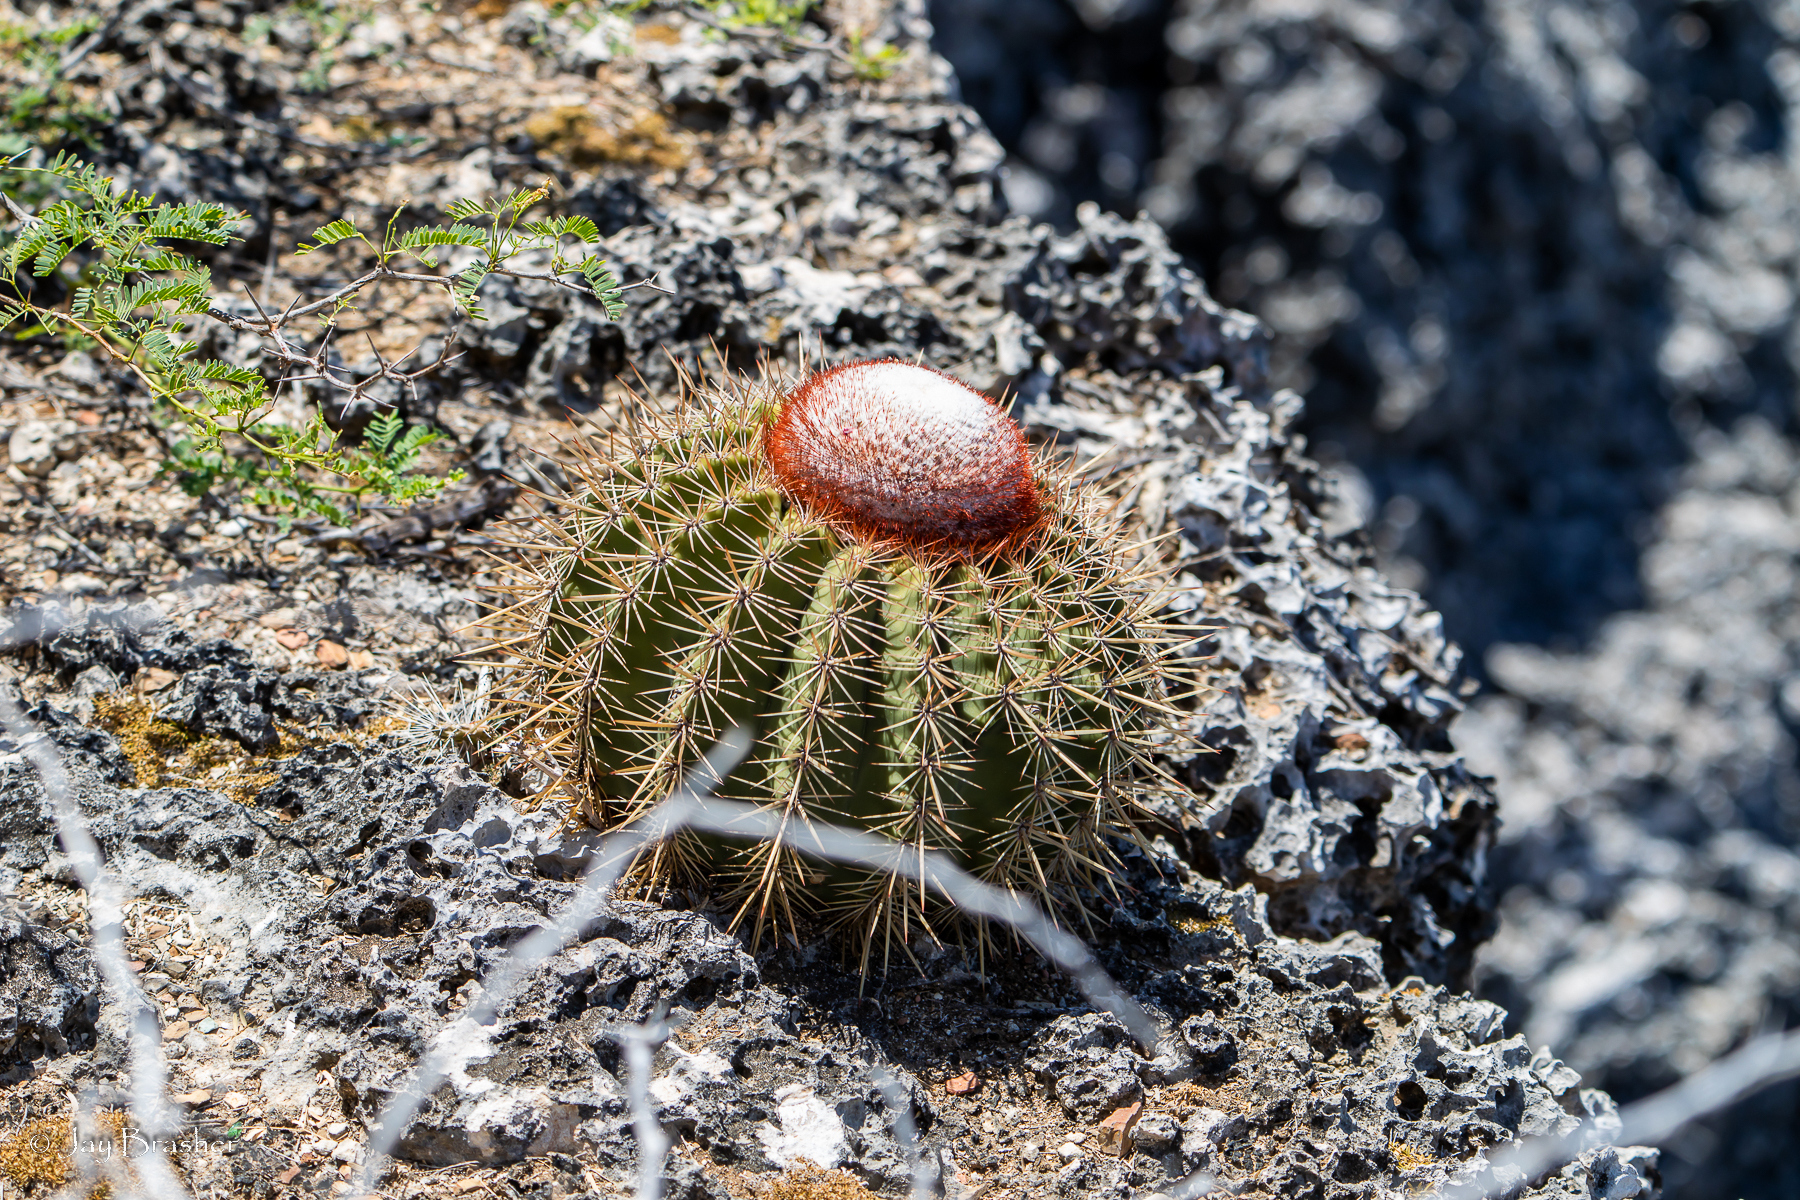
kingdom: Plantae
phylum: Tracheophyta
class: Magnoliopsida
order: Caryophyllales
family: Cactaceae
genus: Melocactus
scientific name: Melocactus macracanthos
